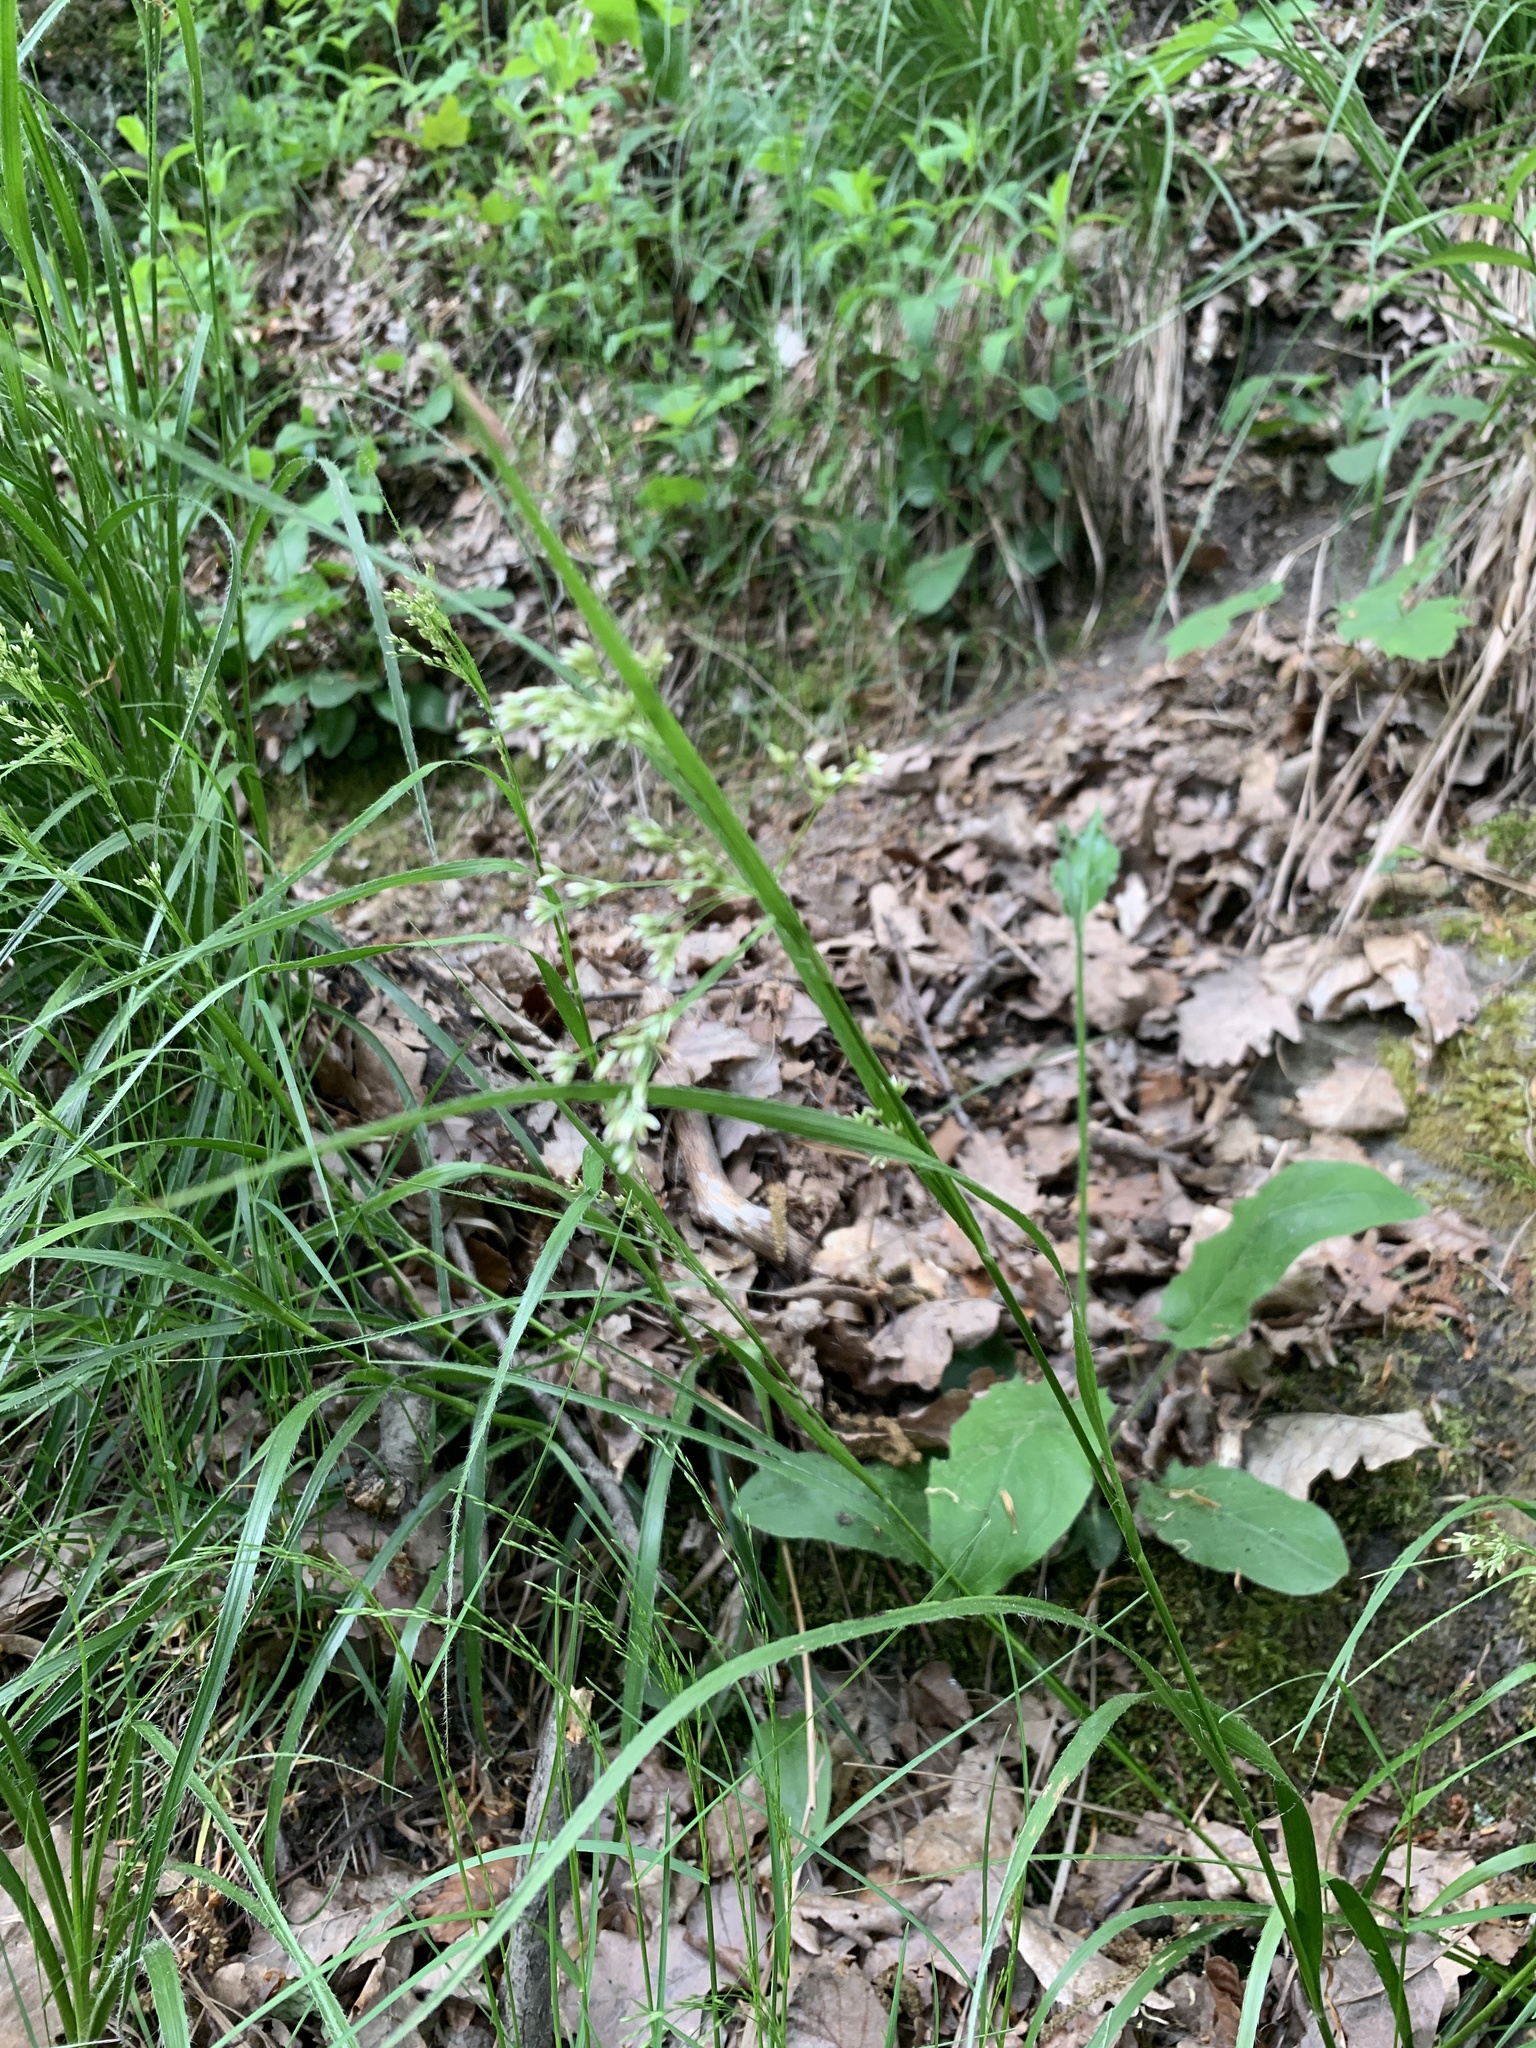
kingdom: Plantae
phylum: Tracheophyta
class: Liliopsida
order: Poales
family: Juncaceae
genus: Luzula
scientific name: Luzula luzuloides
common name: White wood-rush
